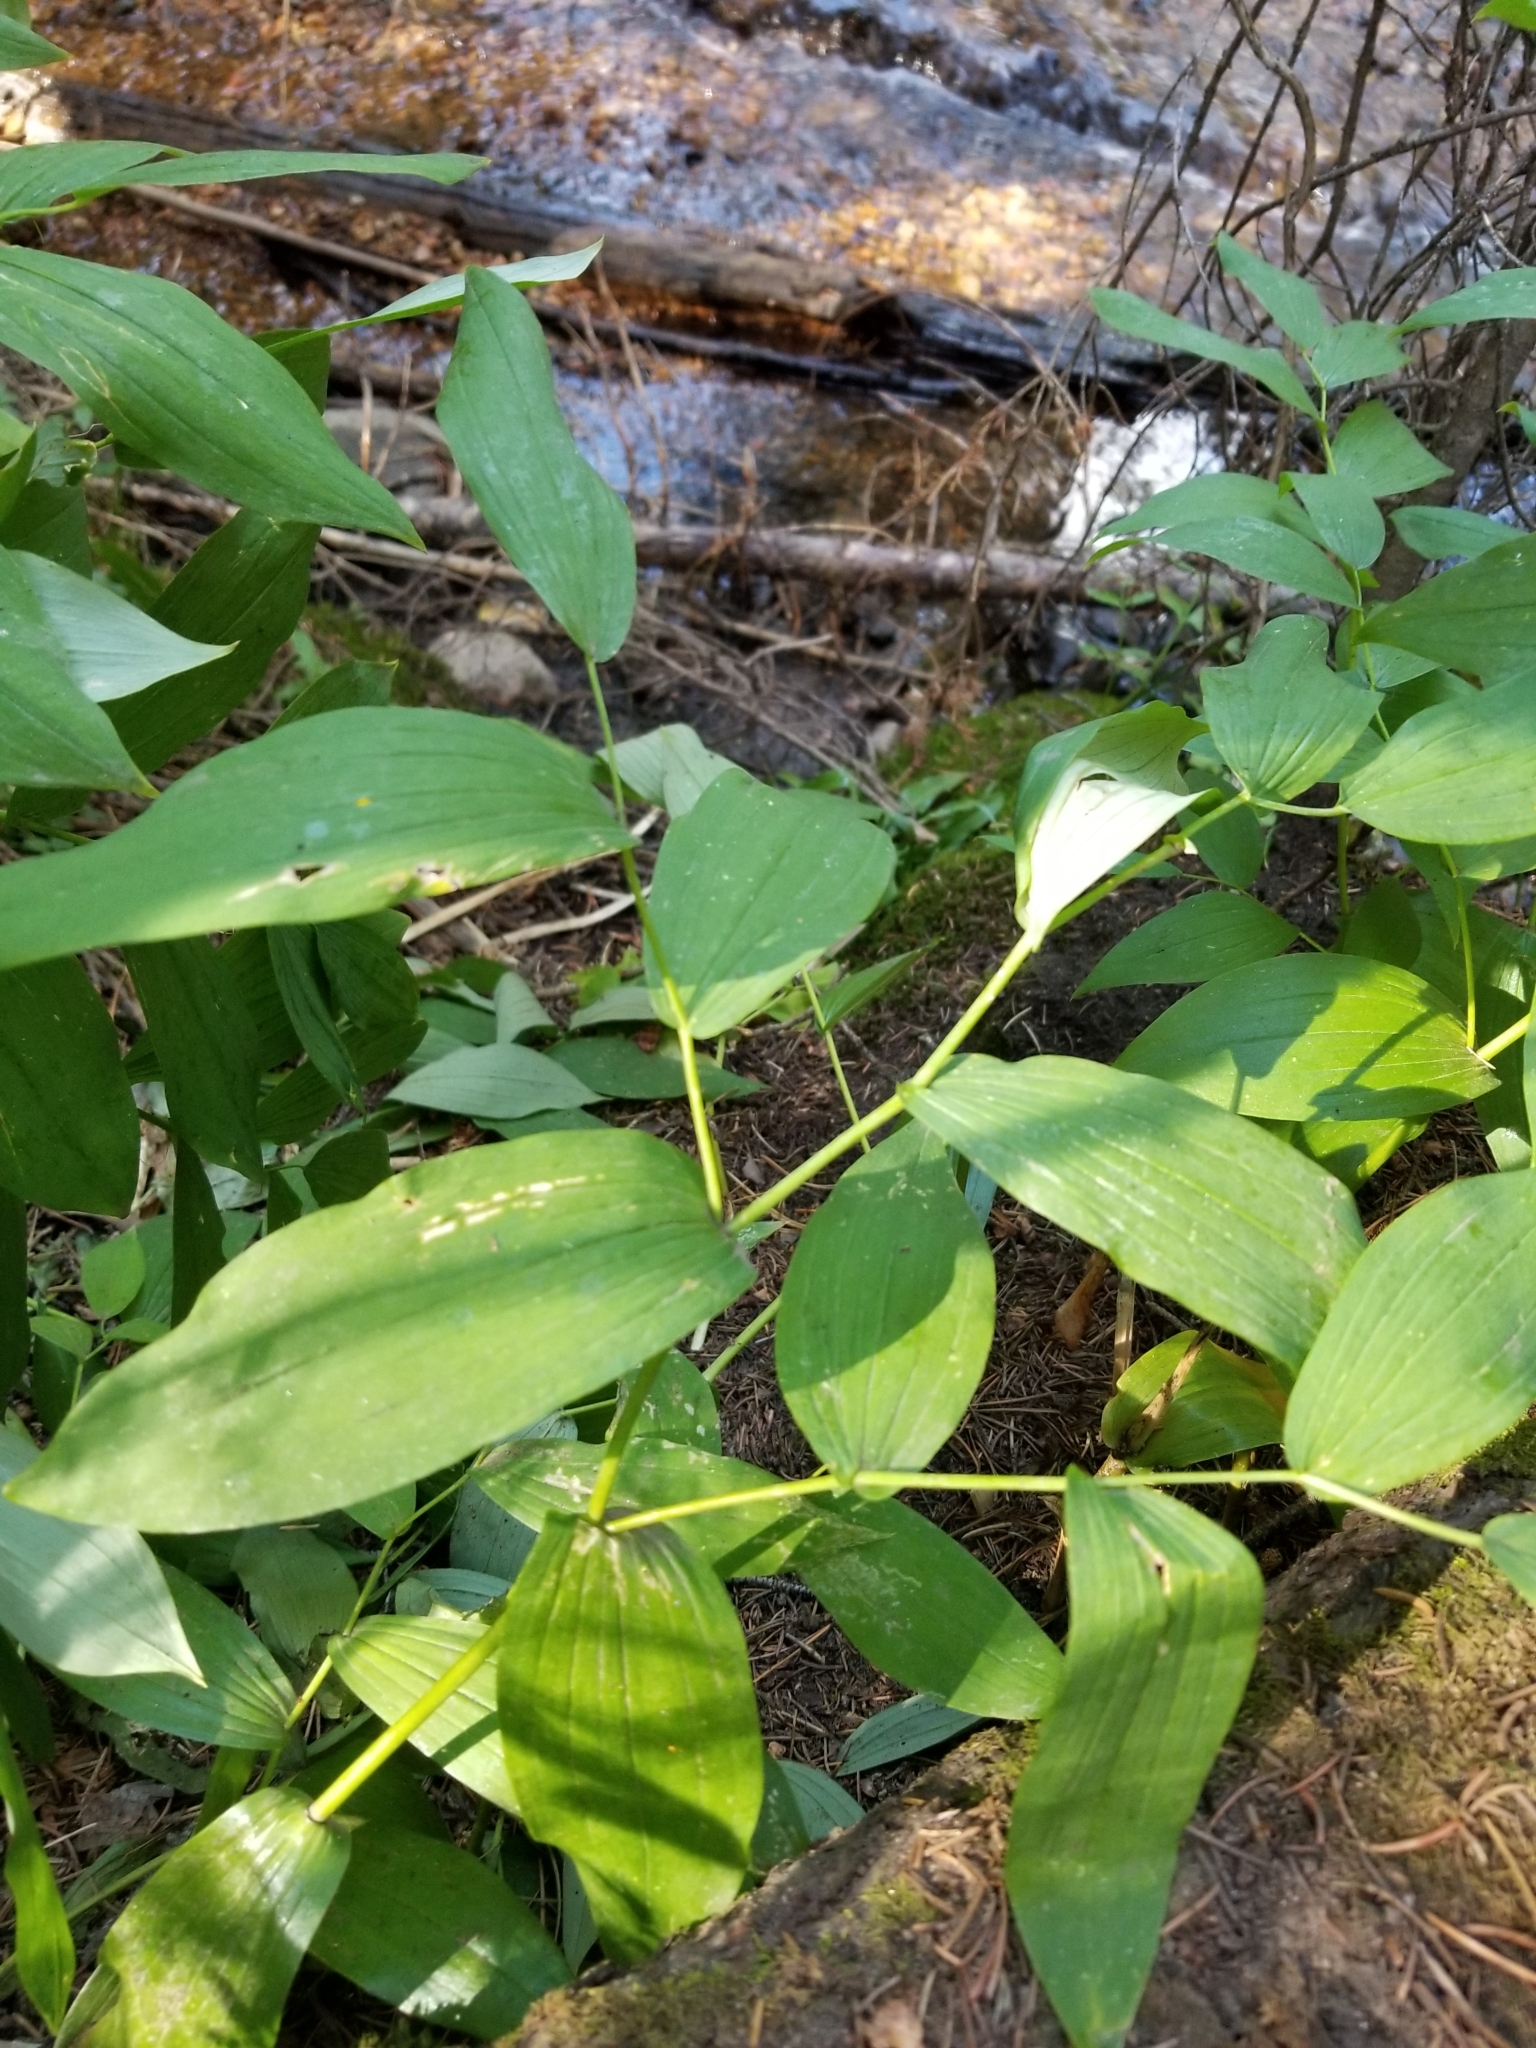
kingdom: Plantae
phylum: Tracheophyta
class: Liliopsida
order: Liliales
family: Liliaceae
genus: Streptopus
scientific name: Streptopus amplexifolius
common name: Clasp twisted stalk
